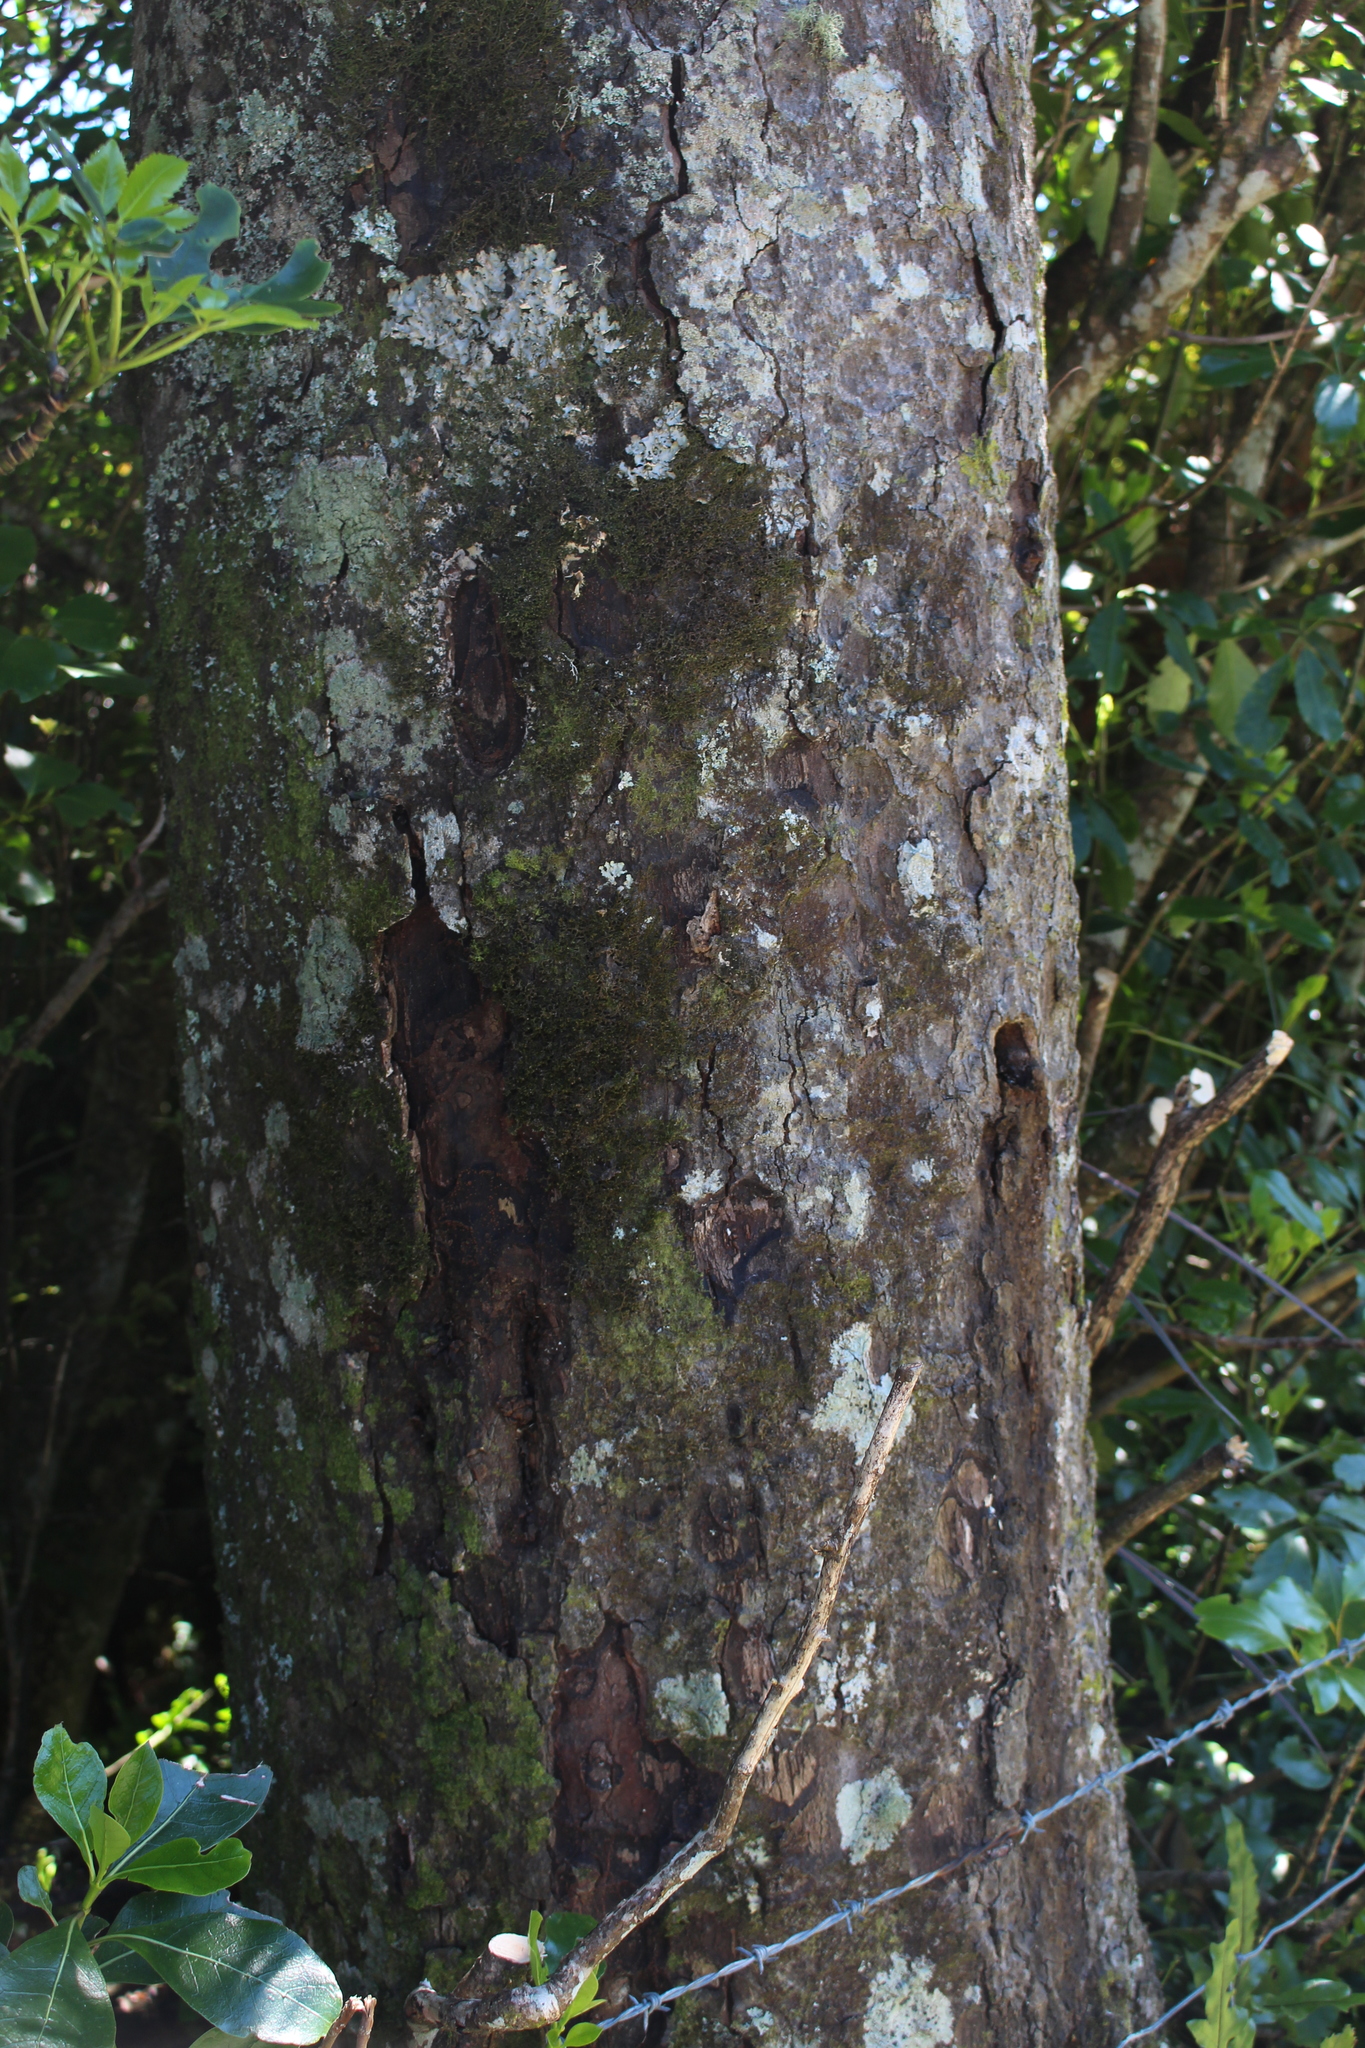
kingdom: Plantae
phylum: Tracheophyta
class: Pinopsida
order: Pinales
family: Podocarpaceae
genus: Dacrycarpus
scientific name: Dacrycarpus dacrydioides
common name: White pine
